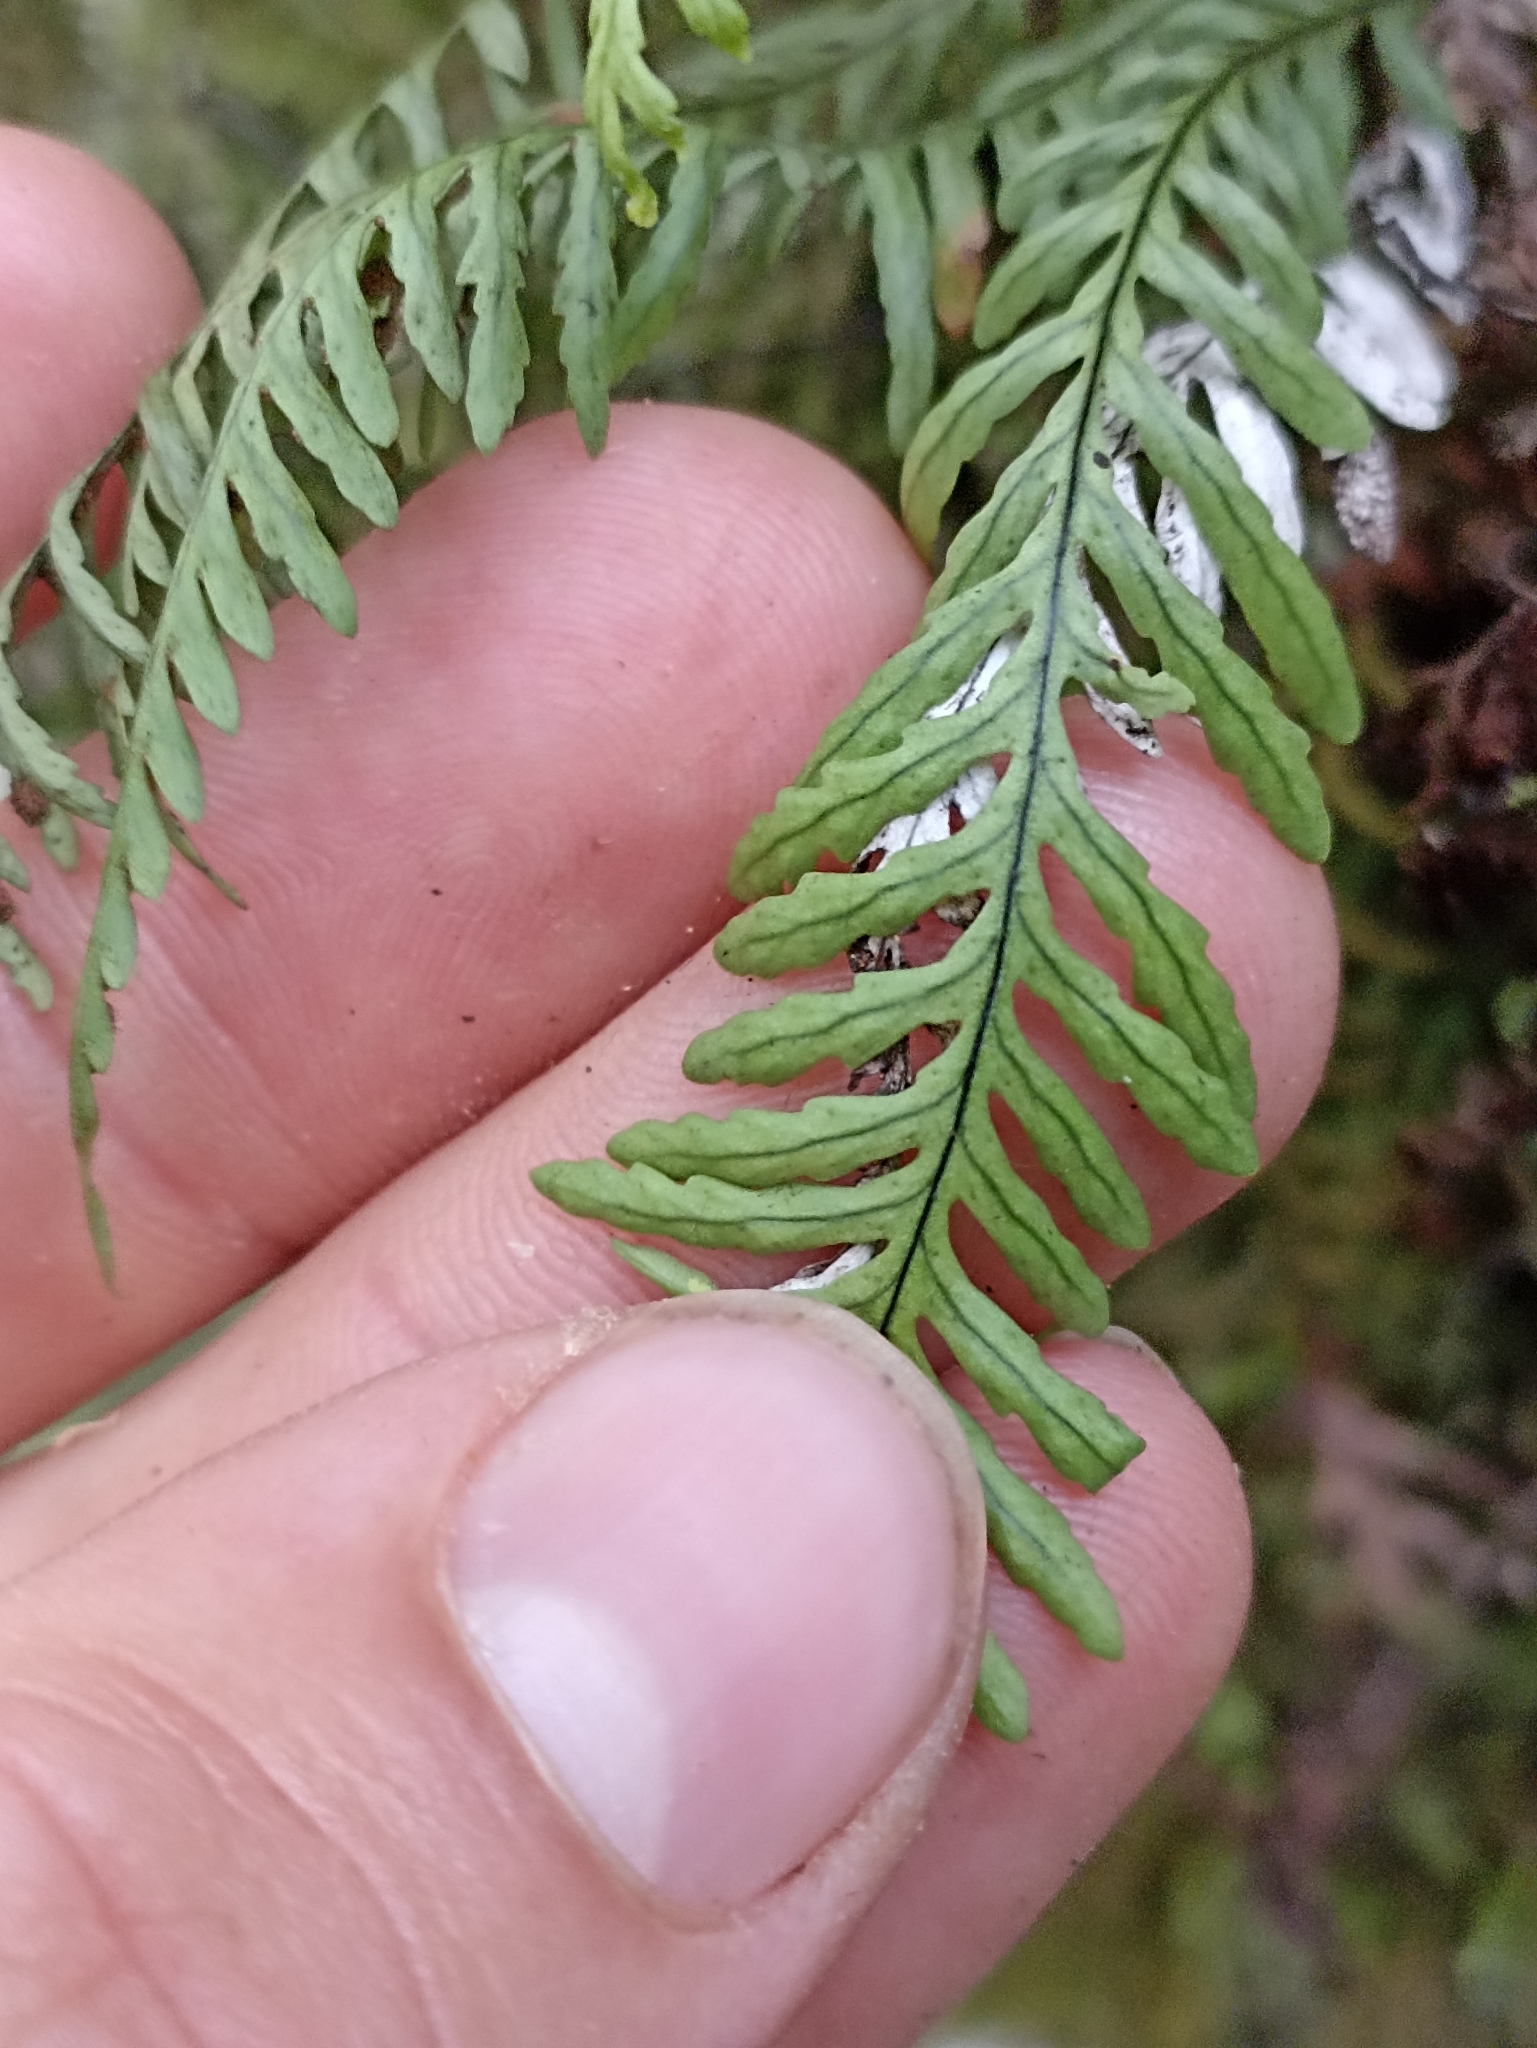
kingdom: Plantae
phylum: Tracheophyta
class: Polypodiopsida
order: Polypodiales
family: Polypodiaceae
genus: Notogrammitis
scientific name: Notogrammitis heterophylla
